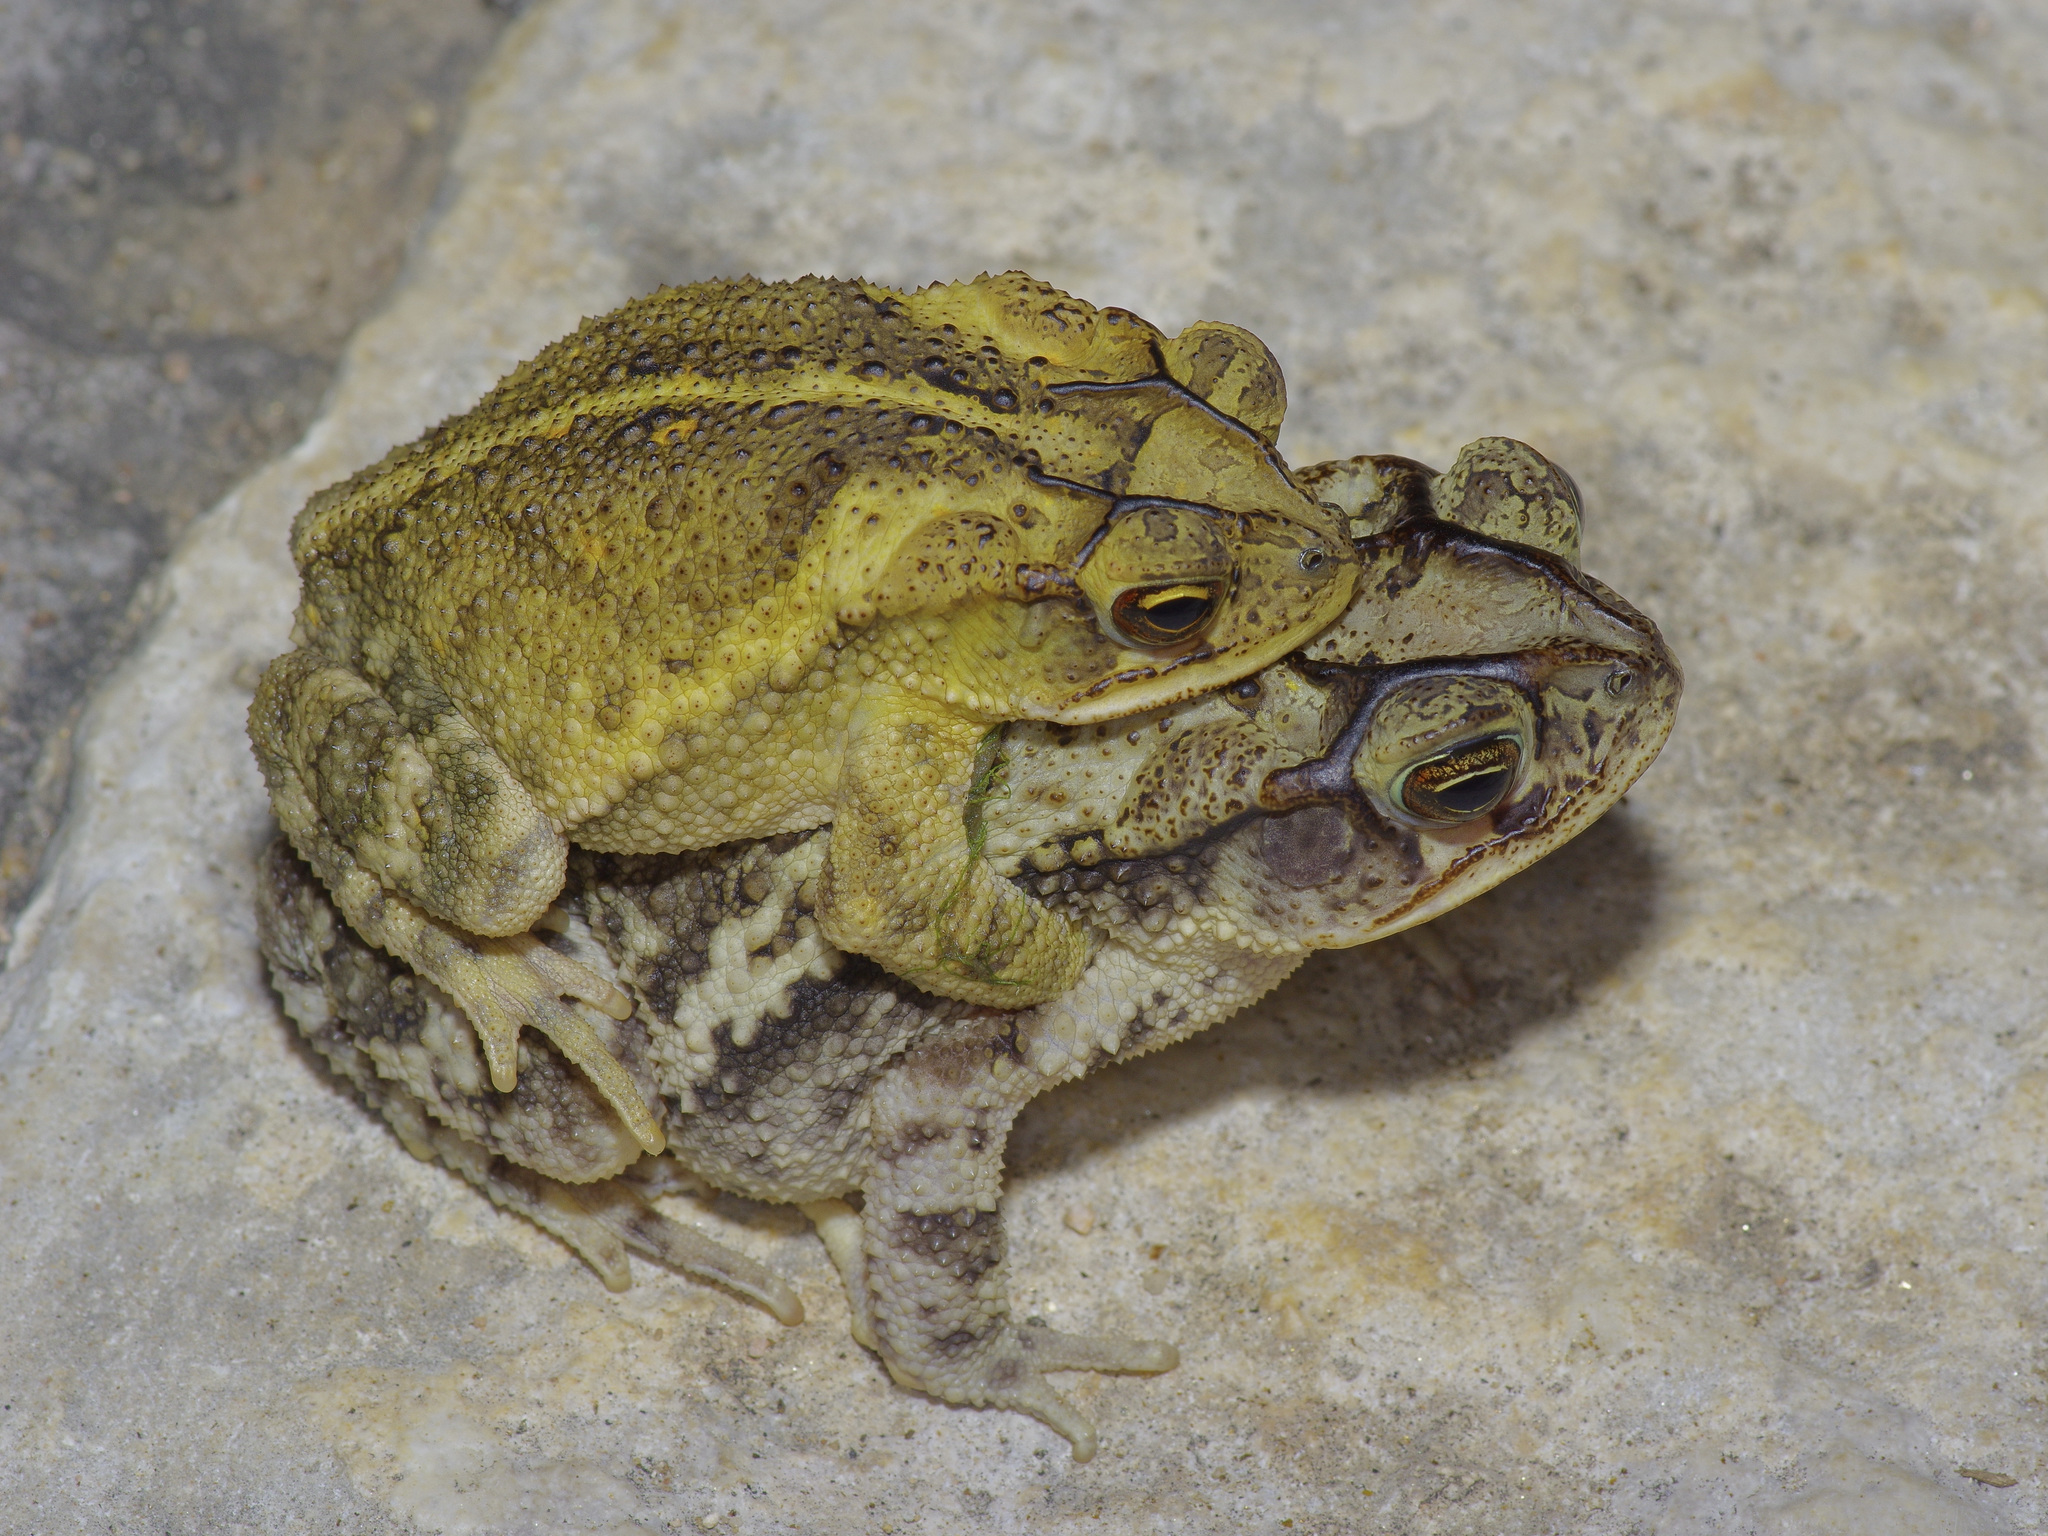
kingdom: Animalia
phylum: Chordata
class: Amphibia
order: Anura
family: Bufonidae
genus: Incilius
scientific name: Incilius nebulifer
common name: Gulf coast toad
